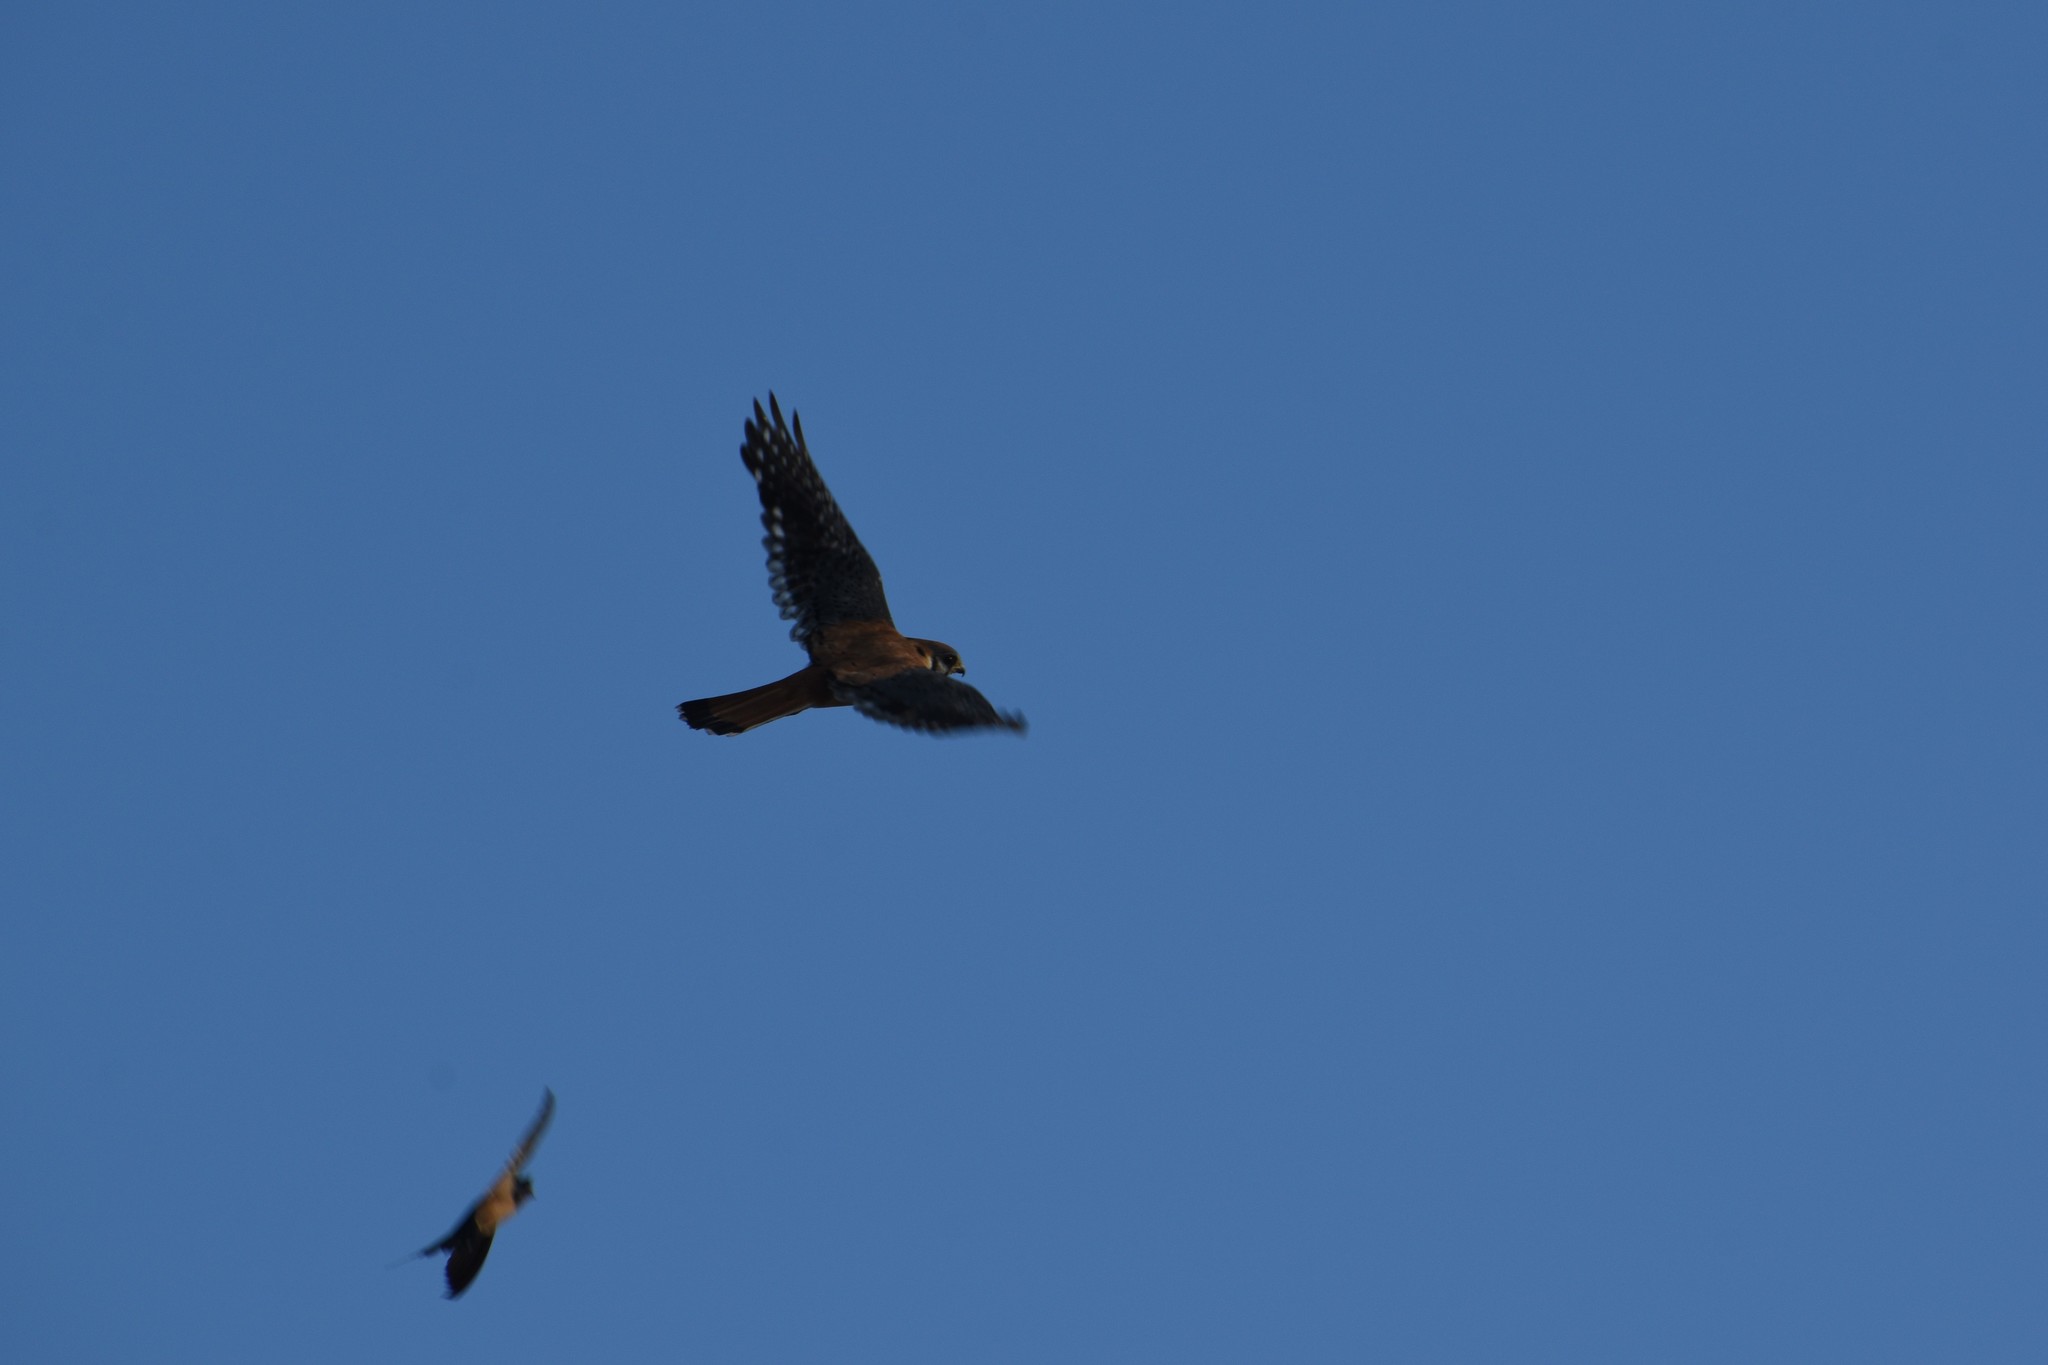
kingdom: Animalia
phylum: Chordata
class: Aves
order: Falconiformes
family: Falconidae
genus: Falco
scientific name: Falco sparverius
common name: American kestrel
